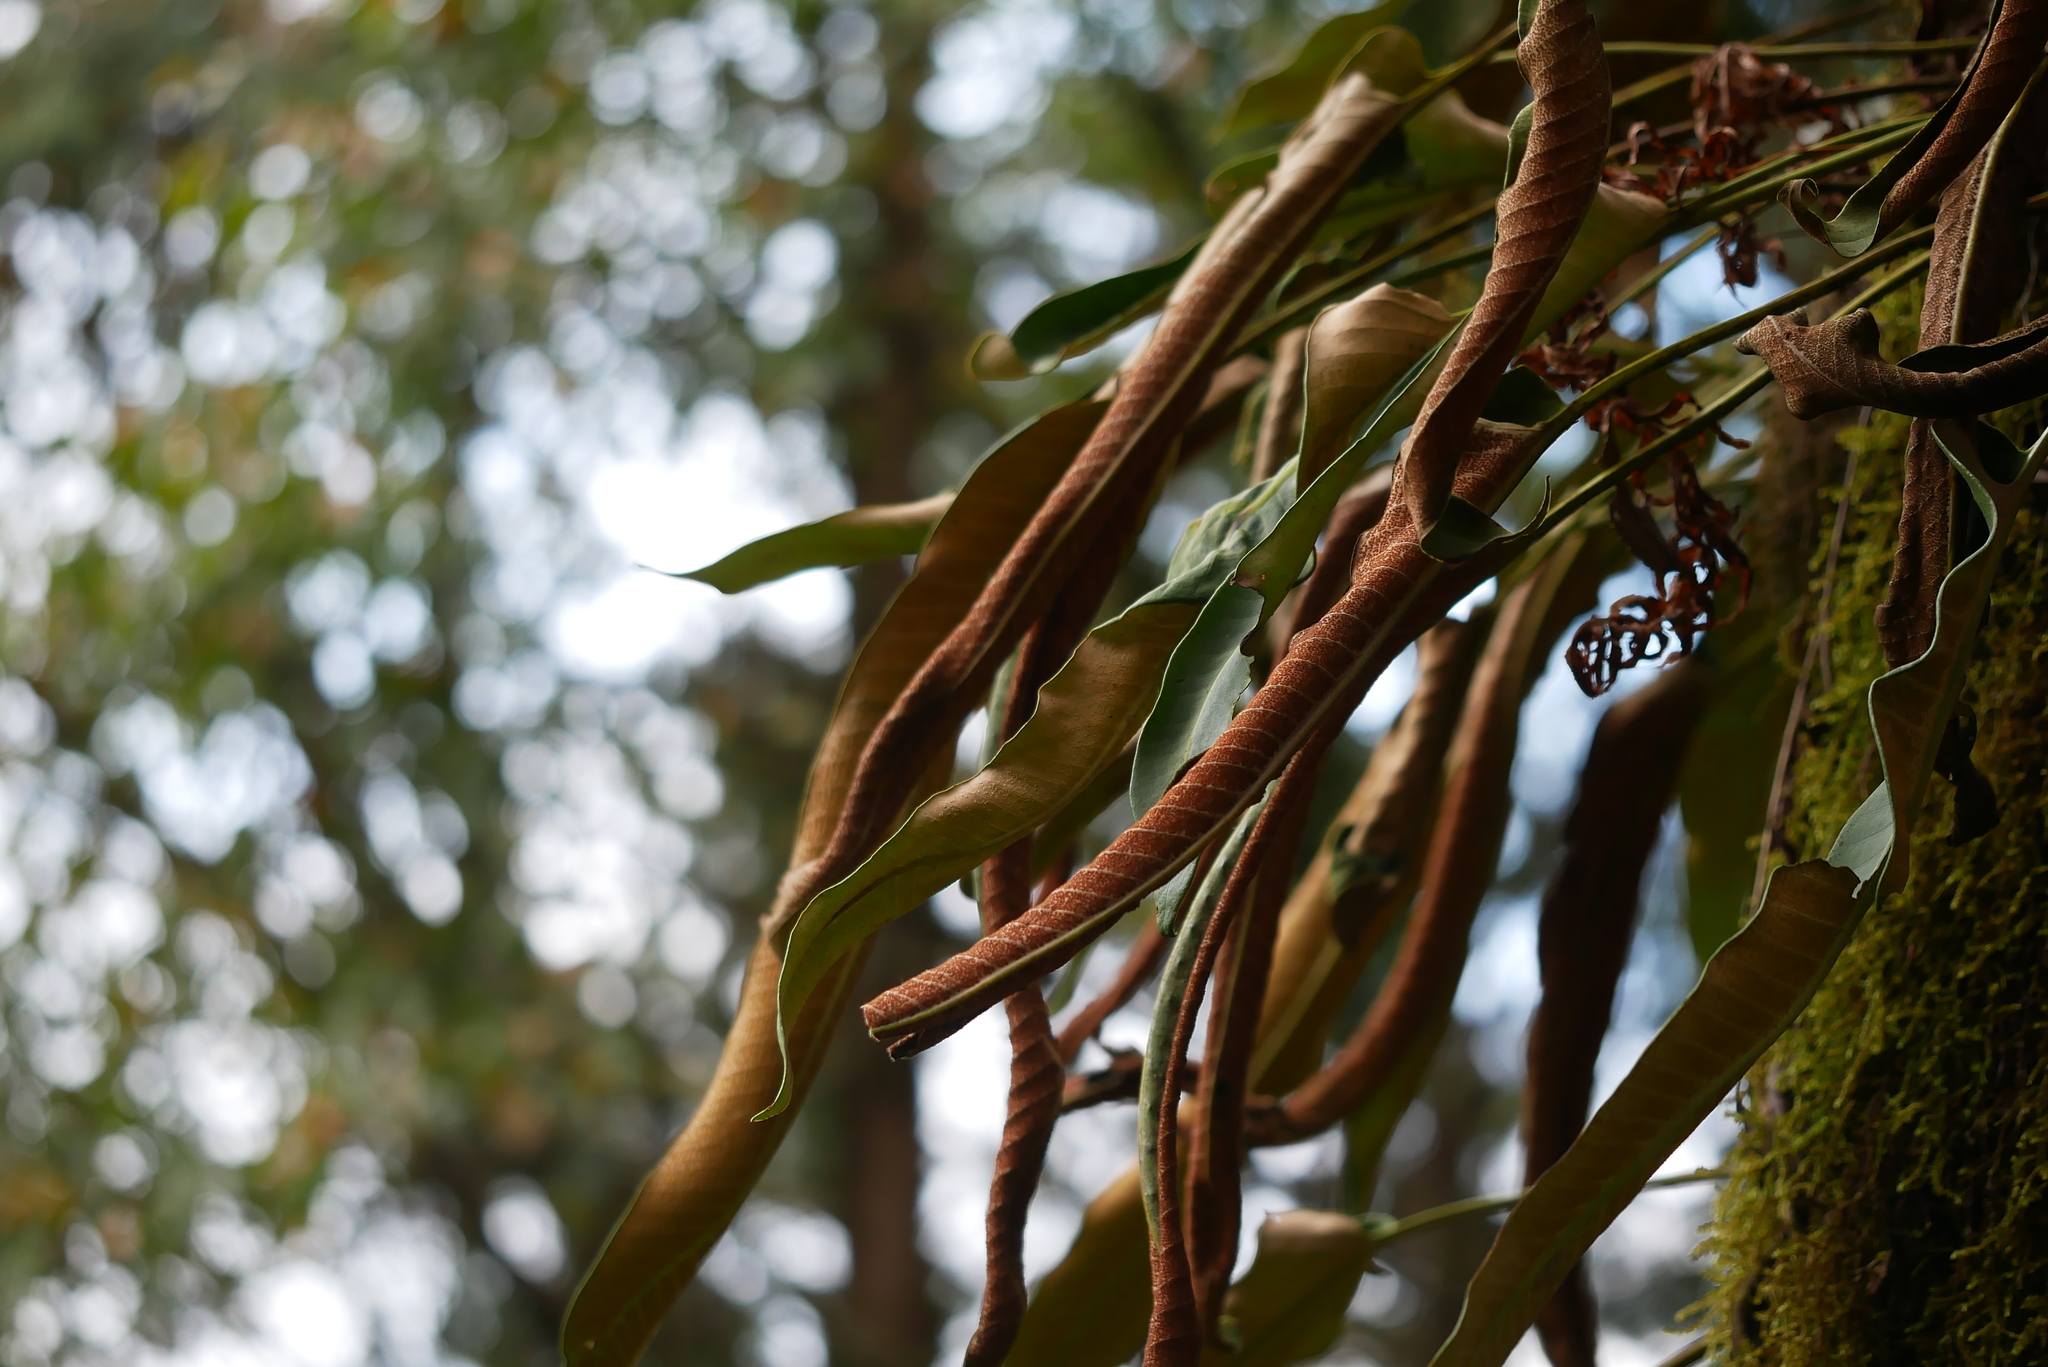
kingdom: Plantae
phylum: Tracheophyta
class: Polypodiopsida
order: Polypodiales
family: Polypodiaceae
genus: Pyrrosia
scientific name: Pyrrosia sheareri
